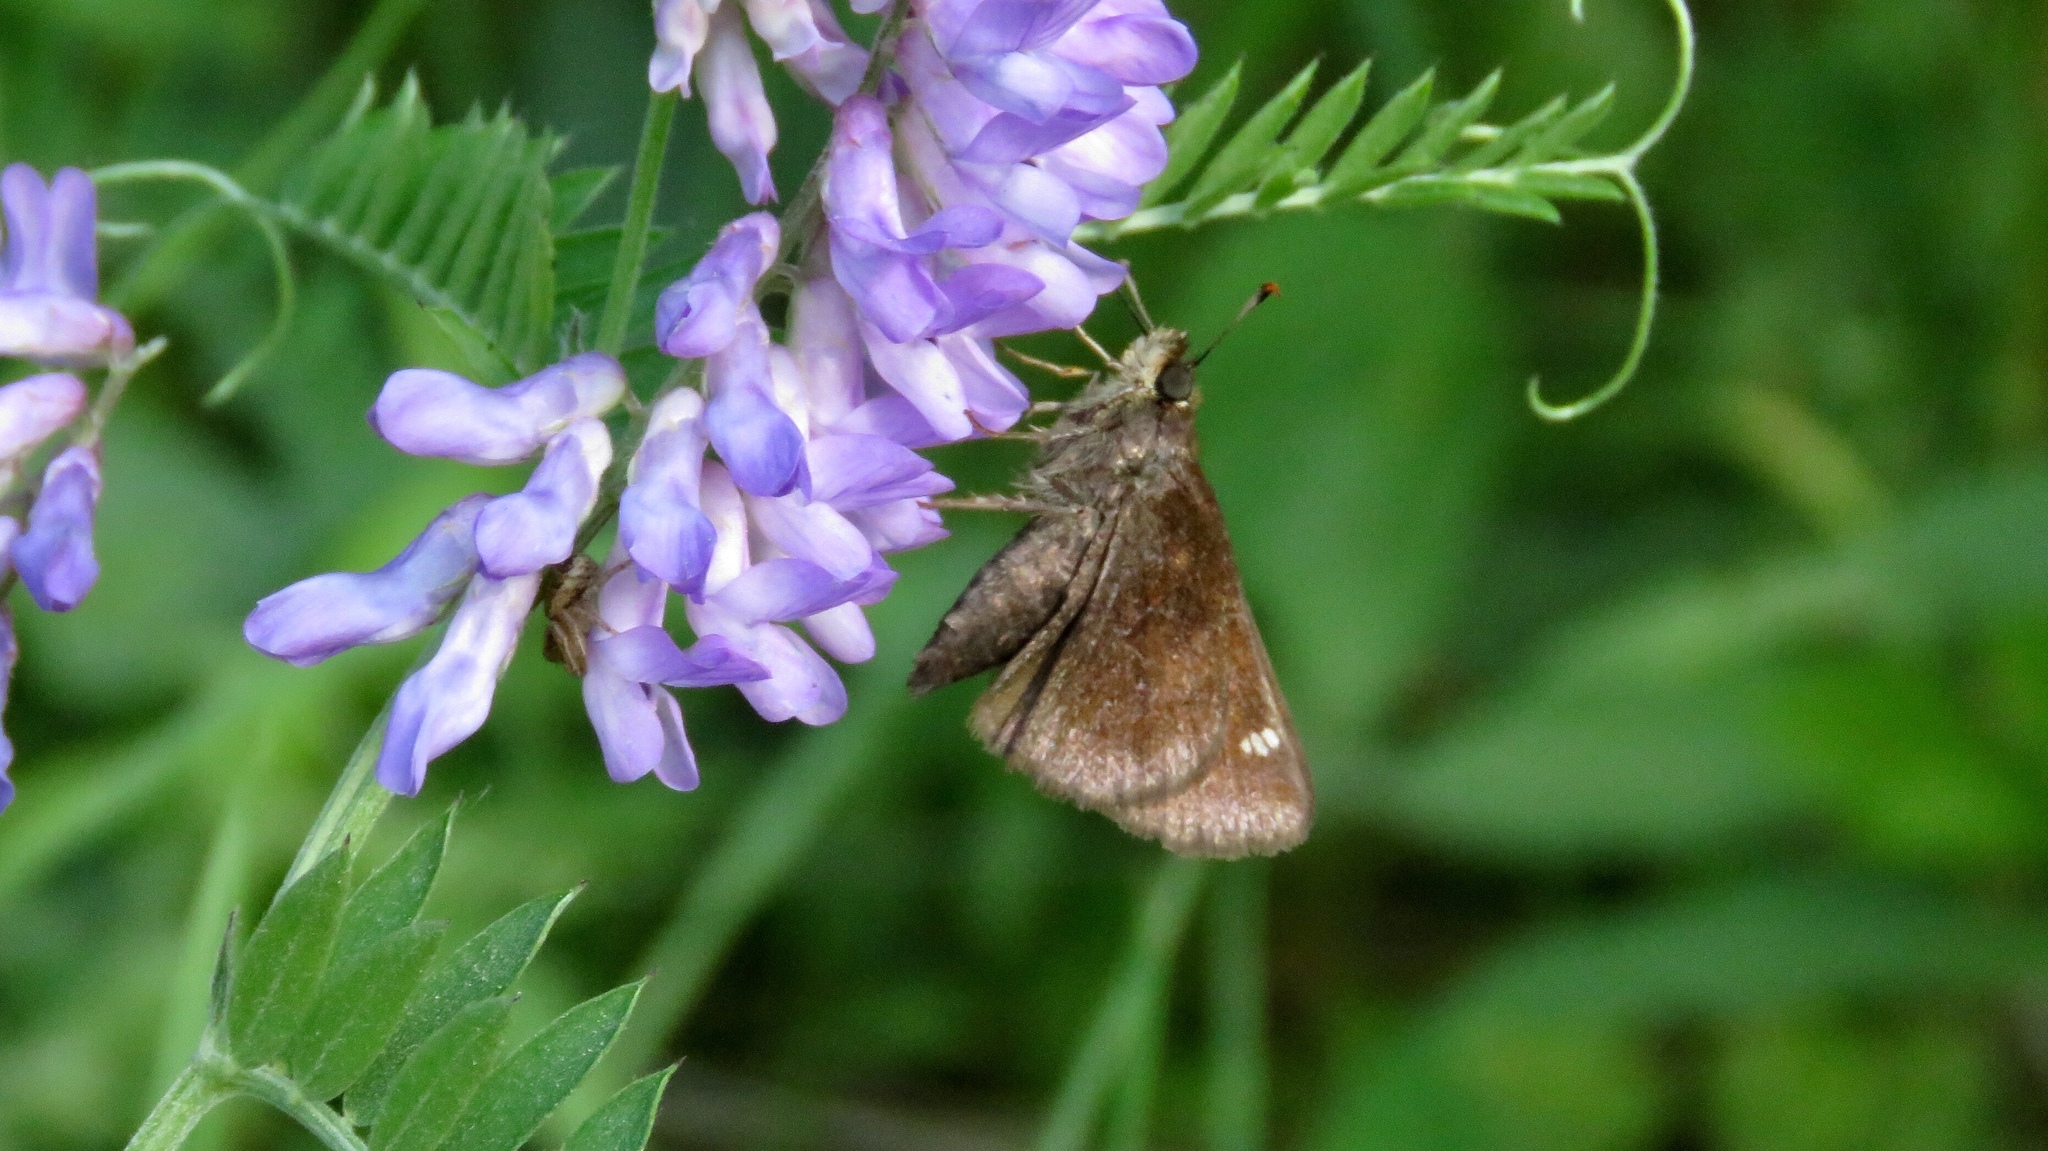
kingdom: Animalia
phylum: Arthropoda
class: Insecta
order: Lepidoptera
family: Hesperiidae
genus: Lon
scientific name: Lon hobomok
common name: Hobomok skipper
